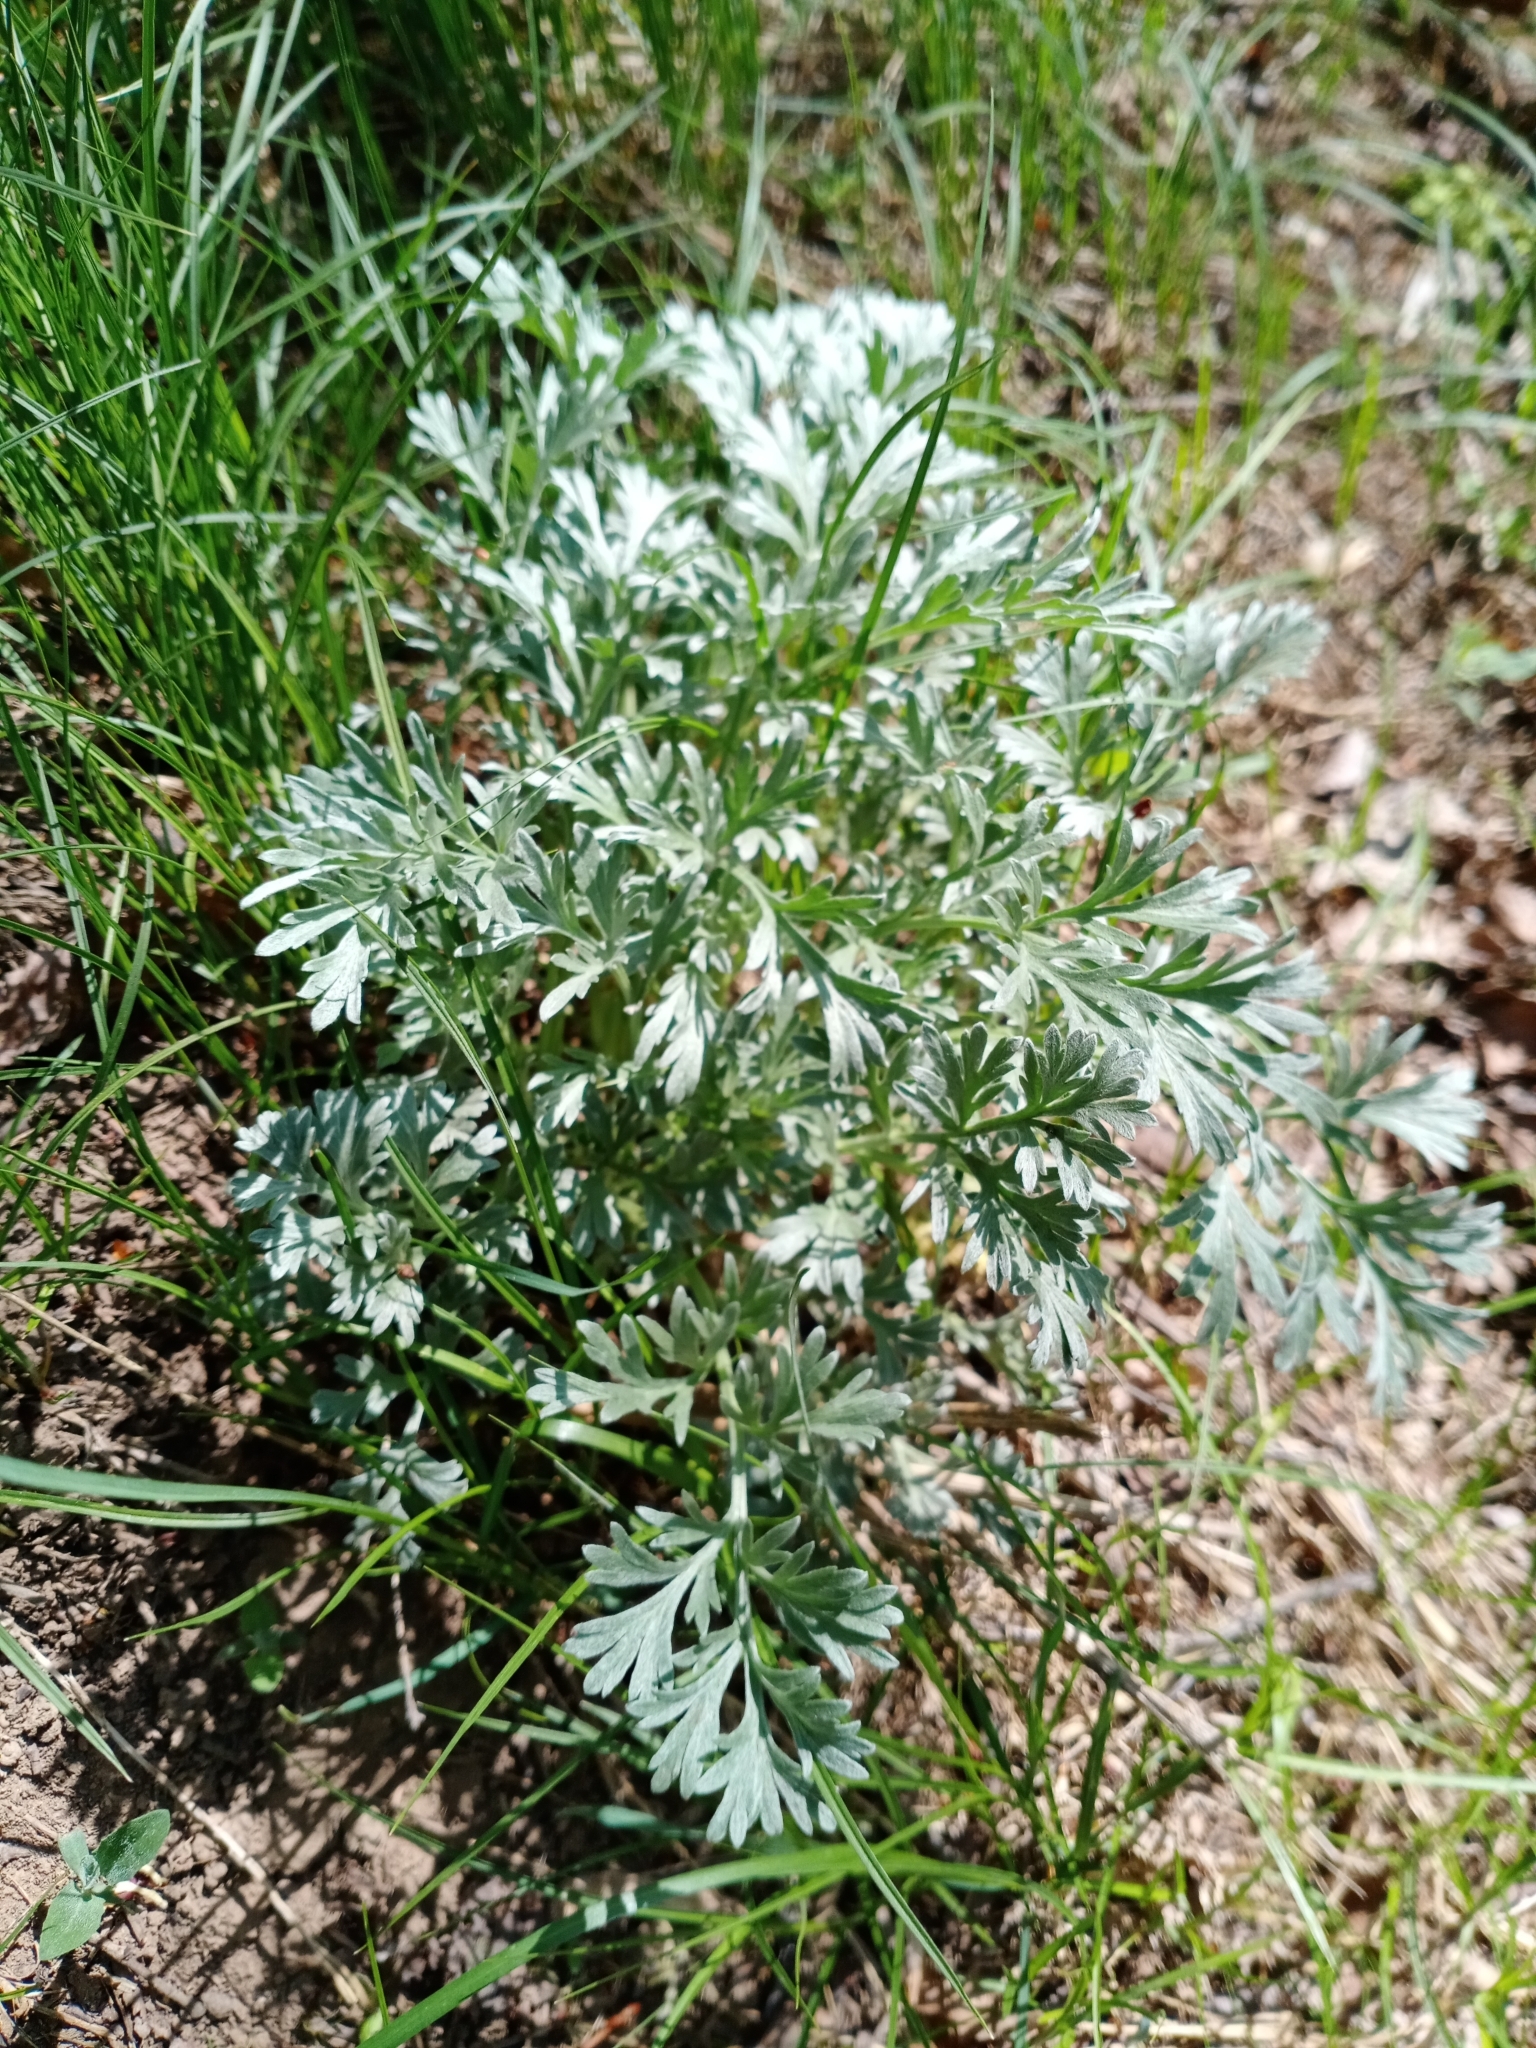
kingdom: Plantae
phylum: Tracheophyta
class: Magnoliopsida
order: Asterales
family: Asteraceae
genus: Artemisia
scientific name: Artemisia absinthium
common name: Wormwood
